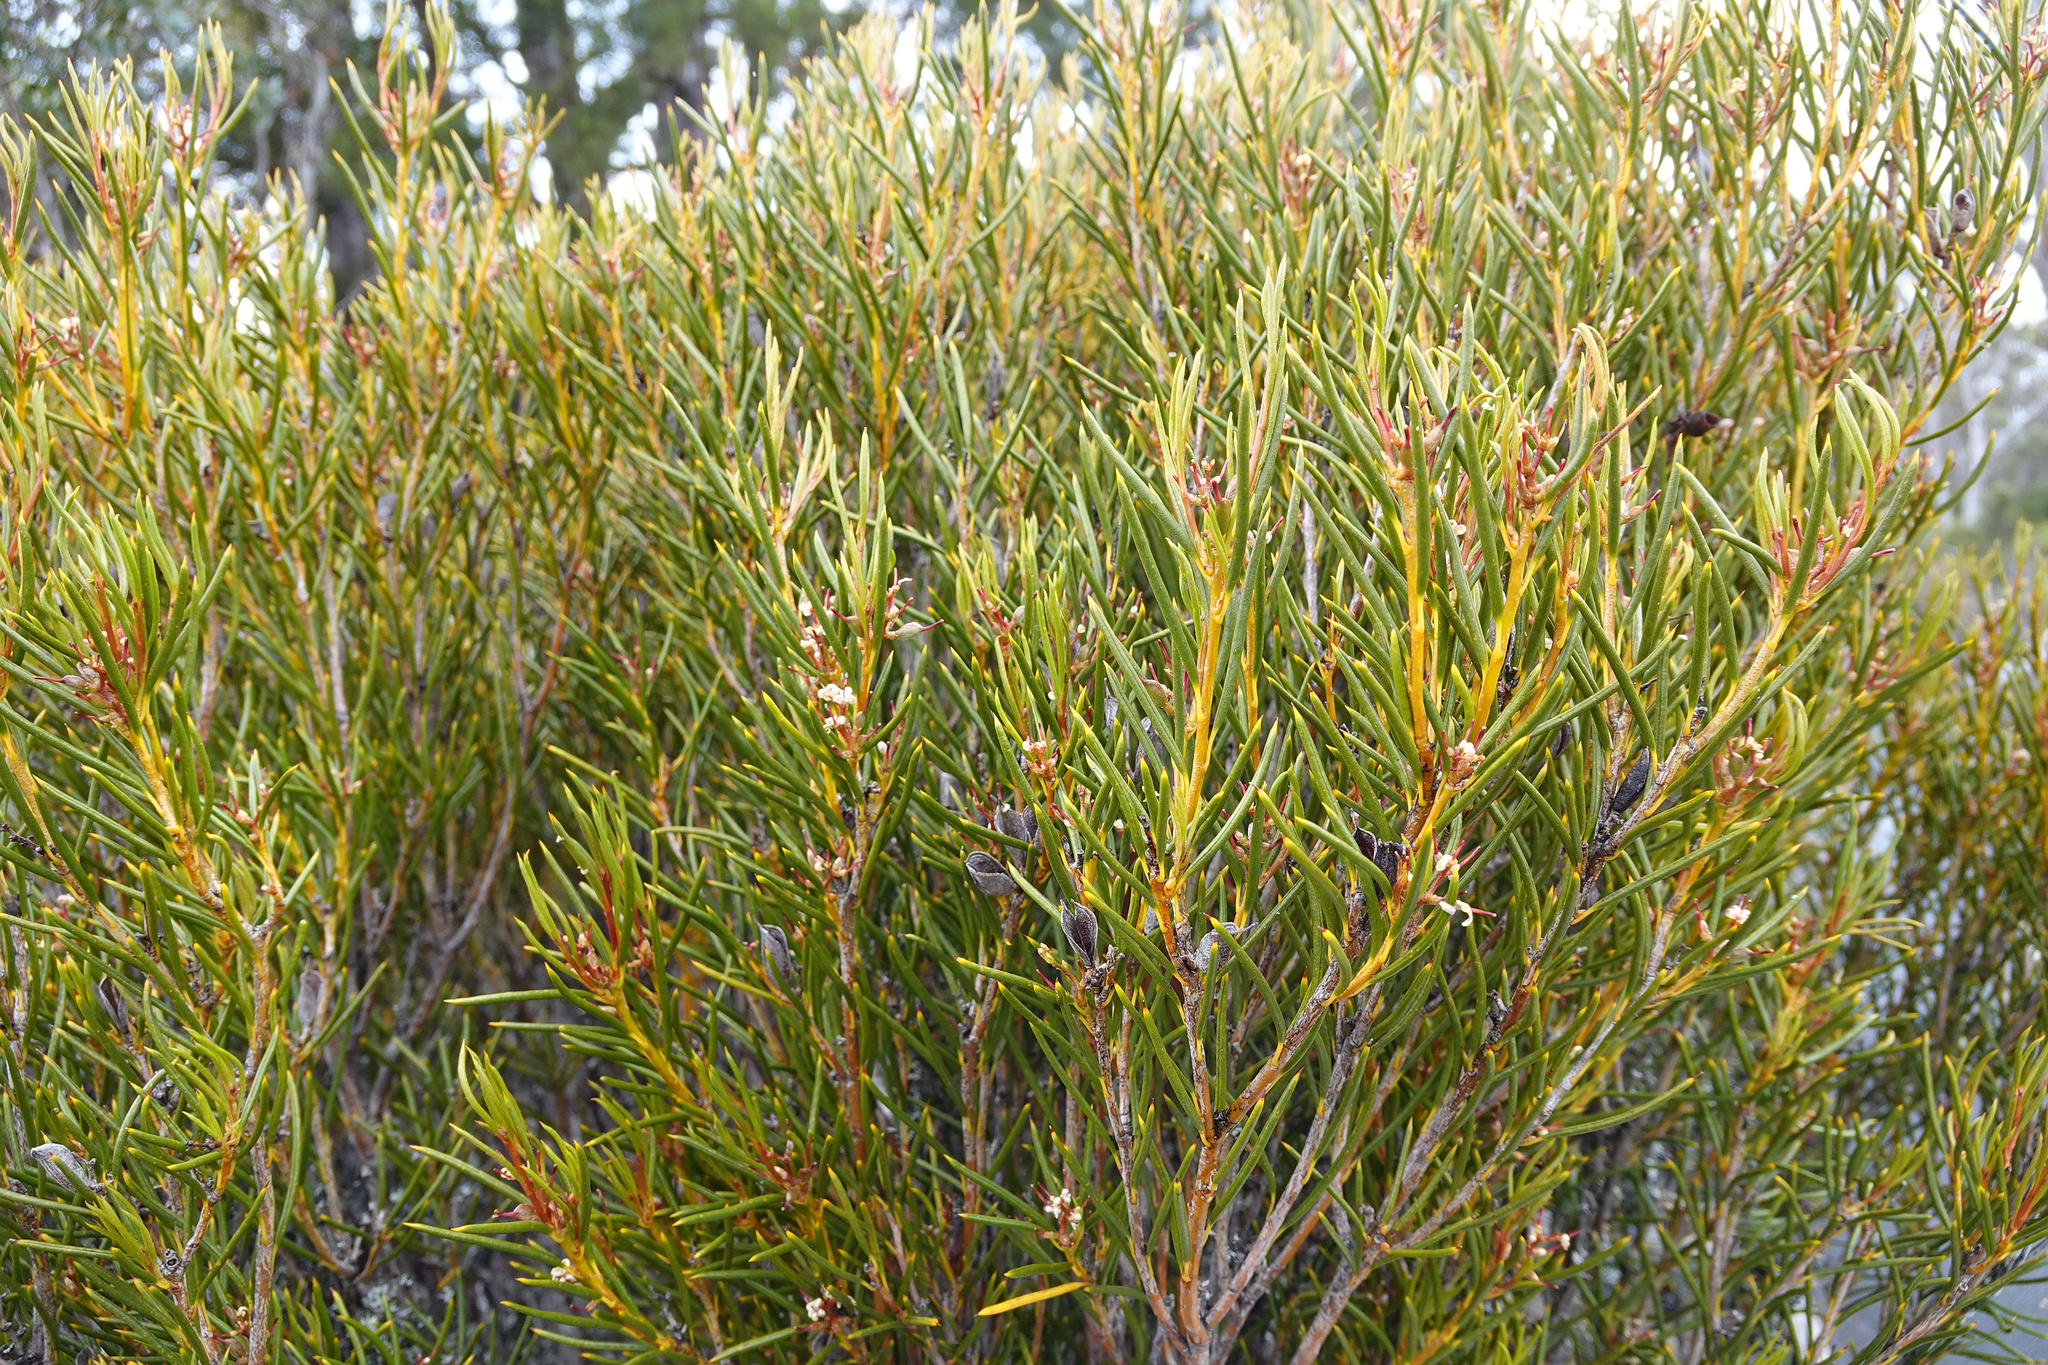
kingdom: Plantae
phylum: Tracheophyta
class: Magnoliopsida
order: Proteales
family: Proteaceae
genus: Orites
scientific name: Orites acicularis
